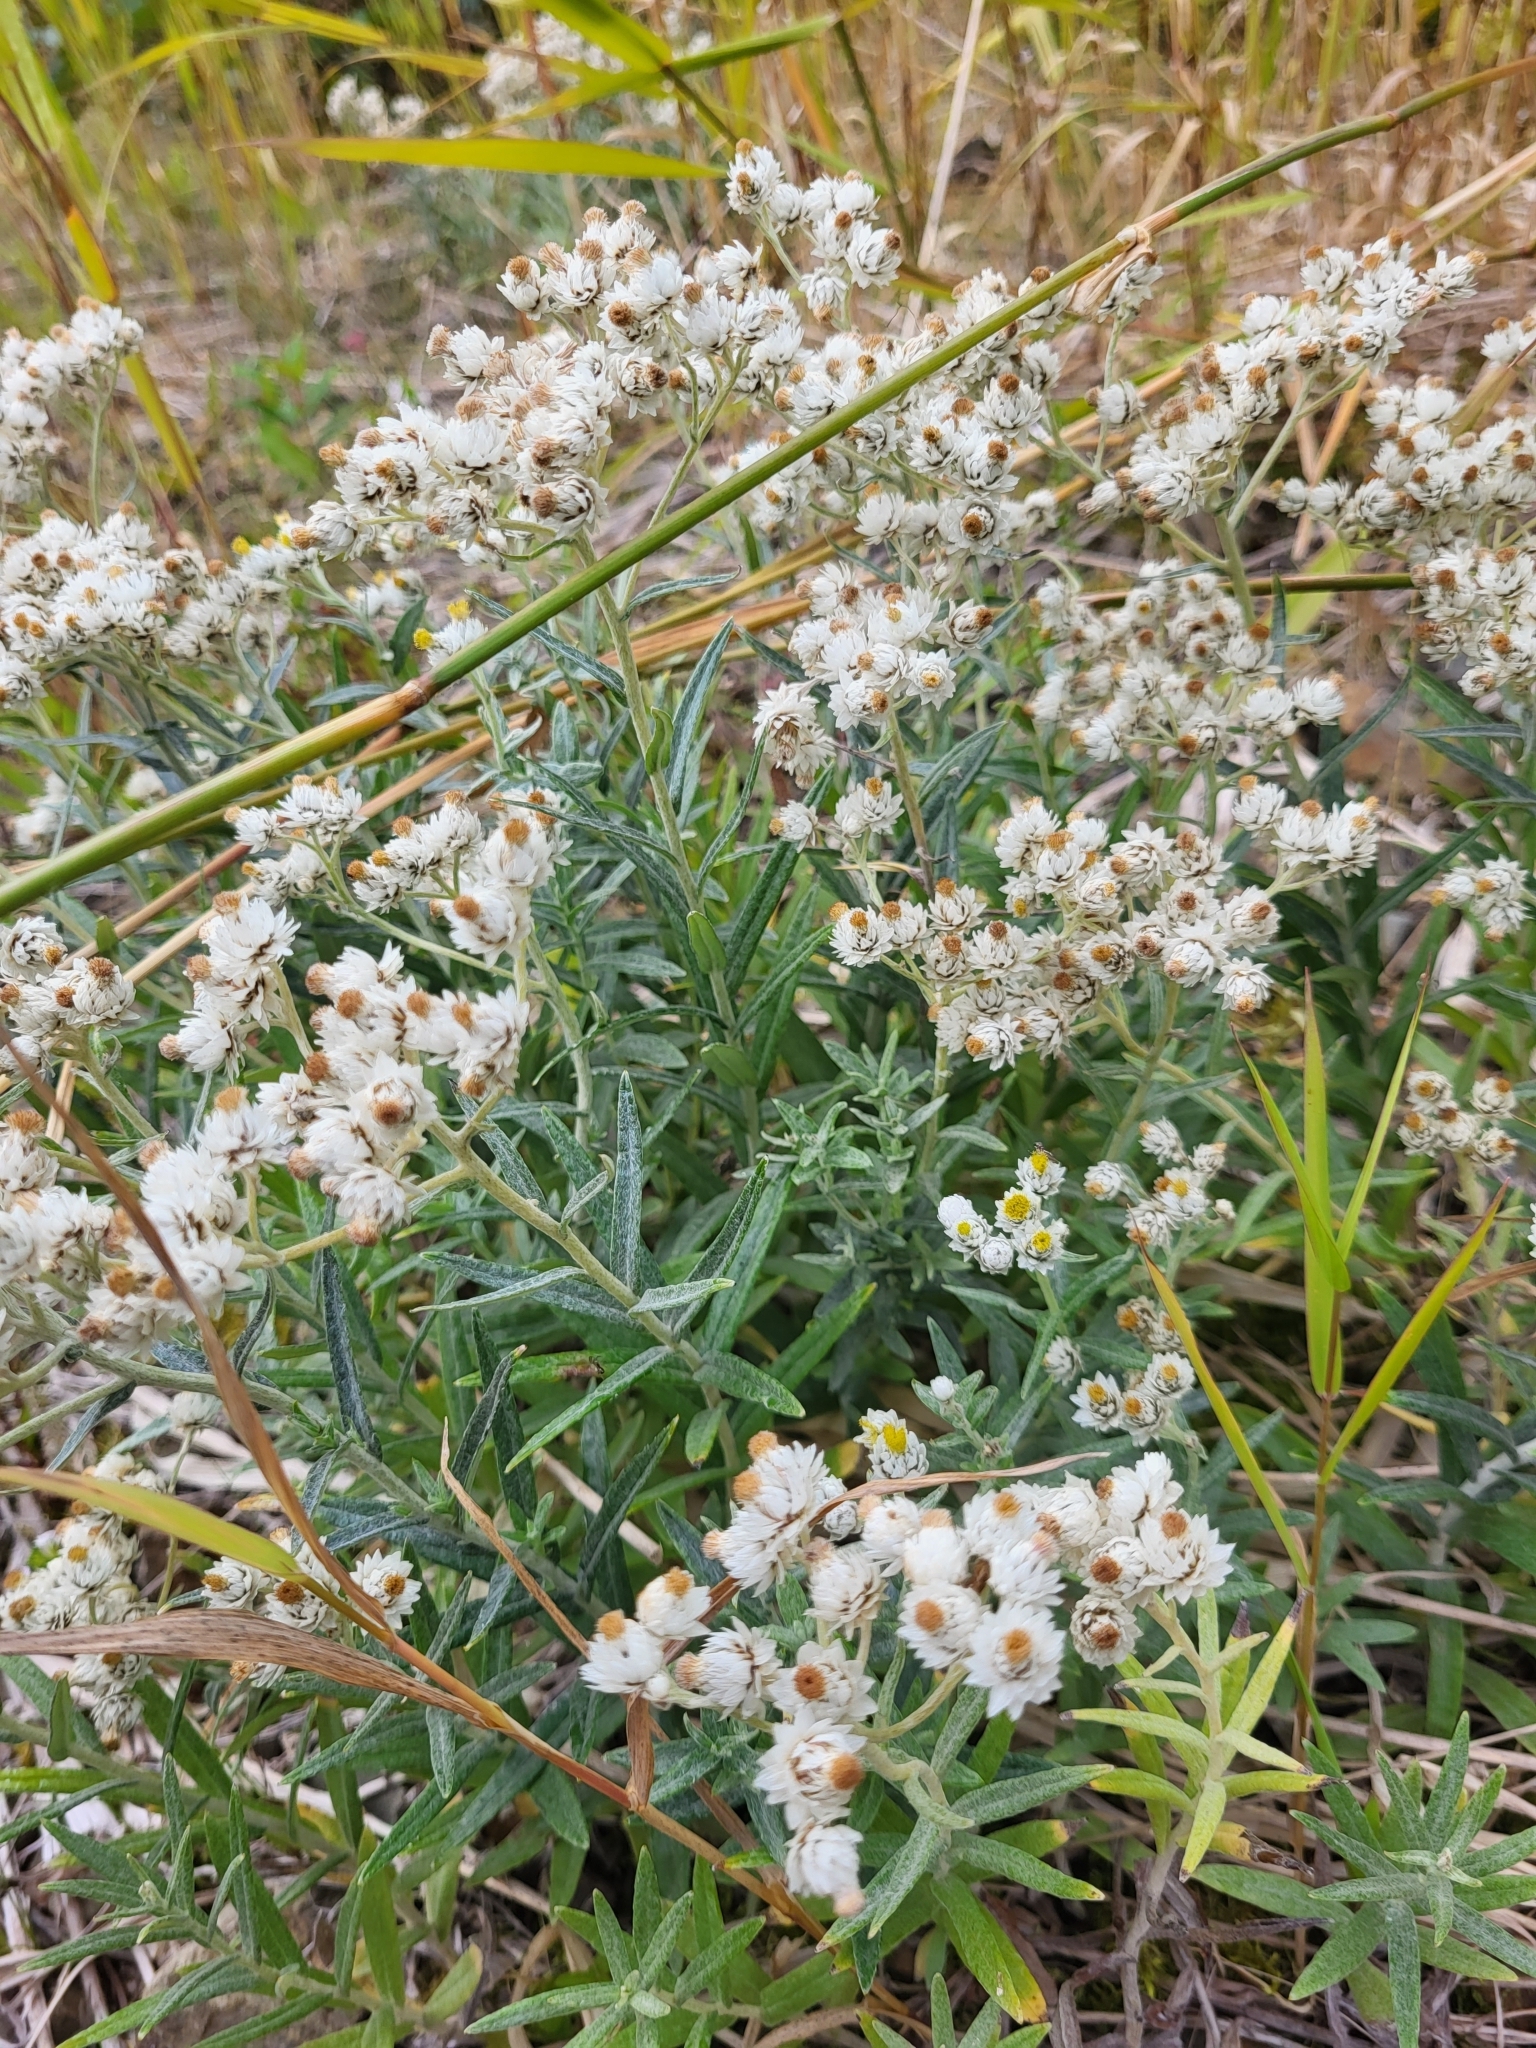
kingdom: Plantae
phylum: Tracheophyta
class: Magnoliopsida
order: Asterales
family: Asteraceae
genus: Anaphalis
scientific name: Anaphalis margaritacea
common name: Pearly everlasting
